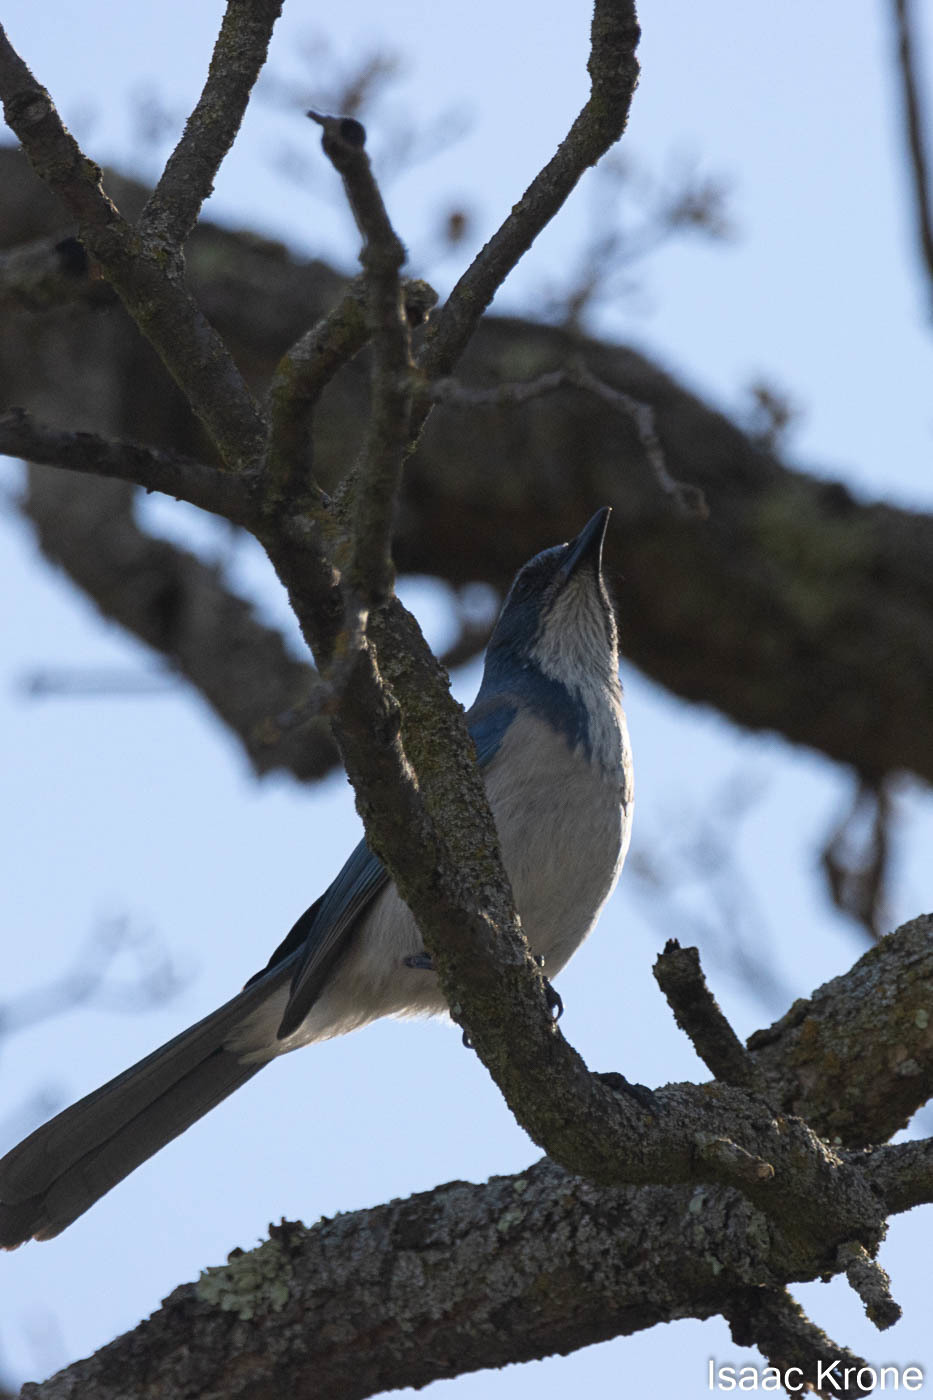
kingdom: Animalia
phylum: Chordata
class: Aves
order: Passeriformes
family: Corvidae
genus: Aphelocoma
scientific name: Aphelocoma californica
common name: California scrub-jay
